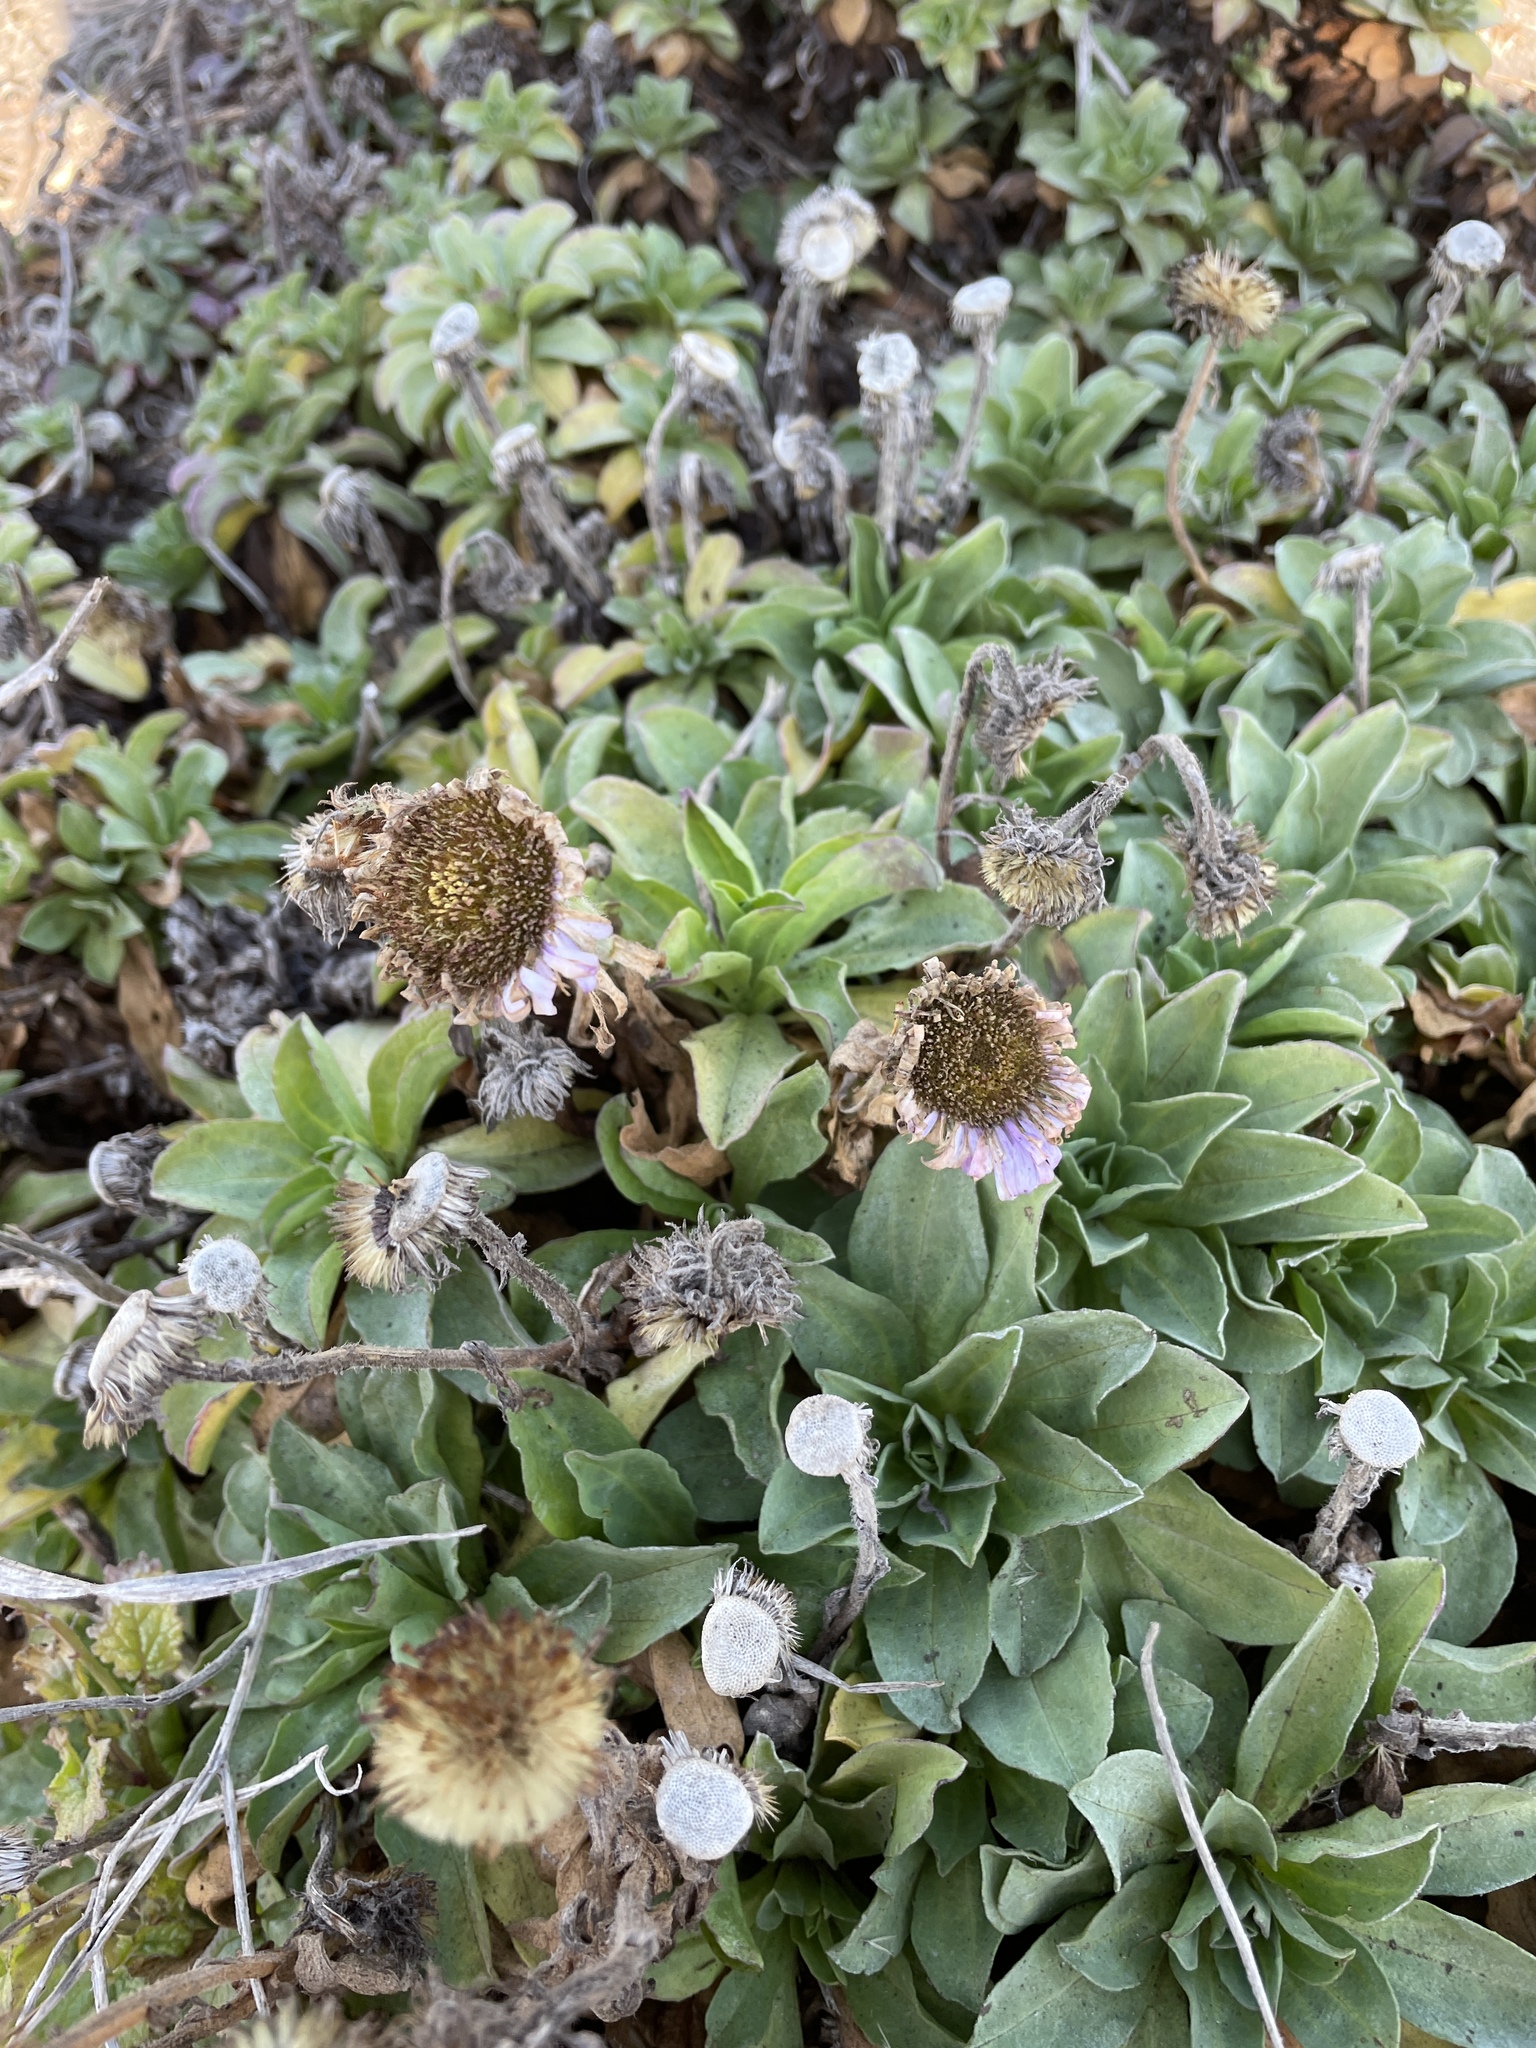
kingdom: Plantae
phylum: Tracheophyta
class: Magnoliopsida
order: Asterales
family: Asteraceae
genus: Erigeron
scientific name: Erigeron glaucus
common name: Seaside daisy
